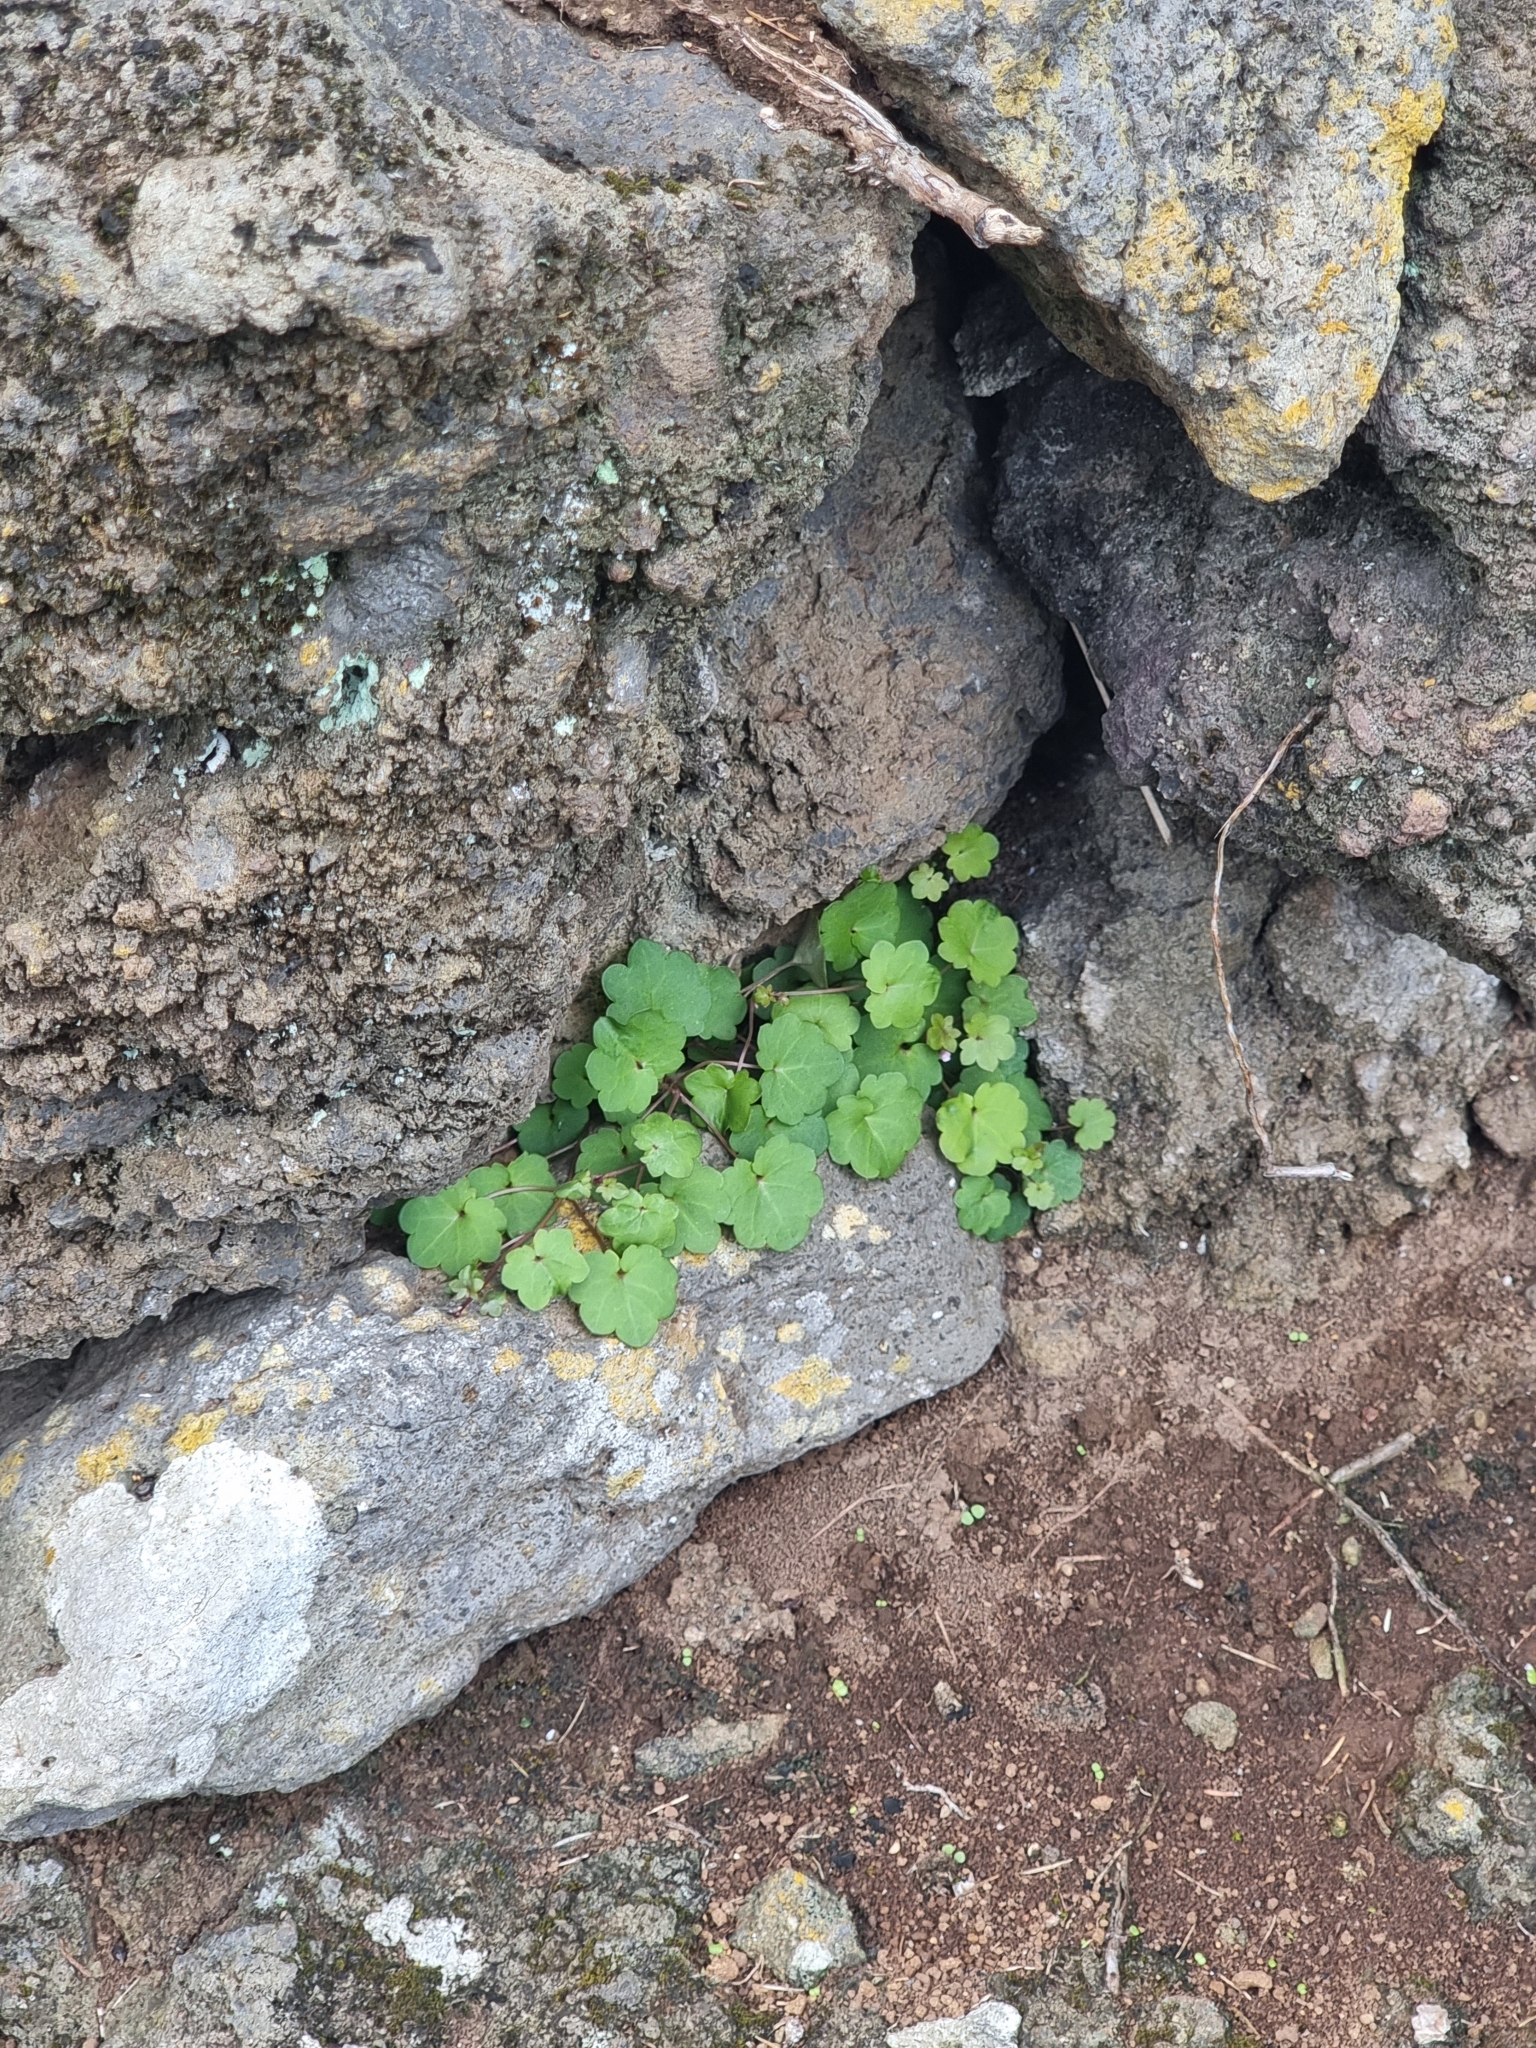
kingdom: Plantae
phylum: Tracheophyta
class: Magnoliopsida
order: Lamiales
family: Plantaginaceae
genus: Cymbalaria
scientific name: Cymbalaria muralis
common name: Ivy-leaved toadflax
